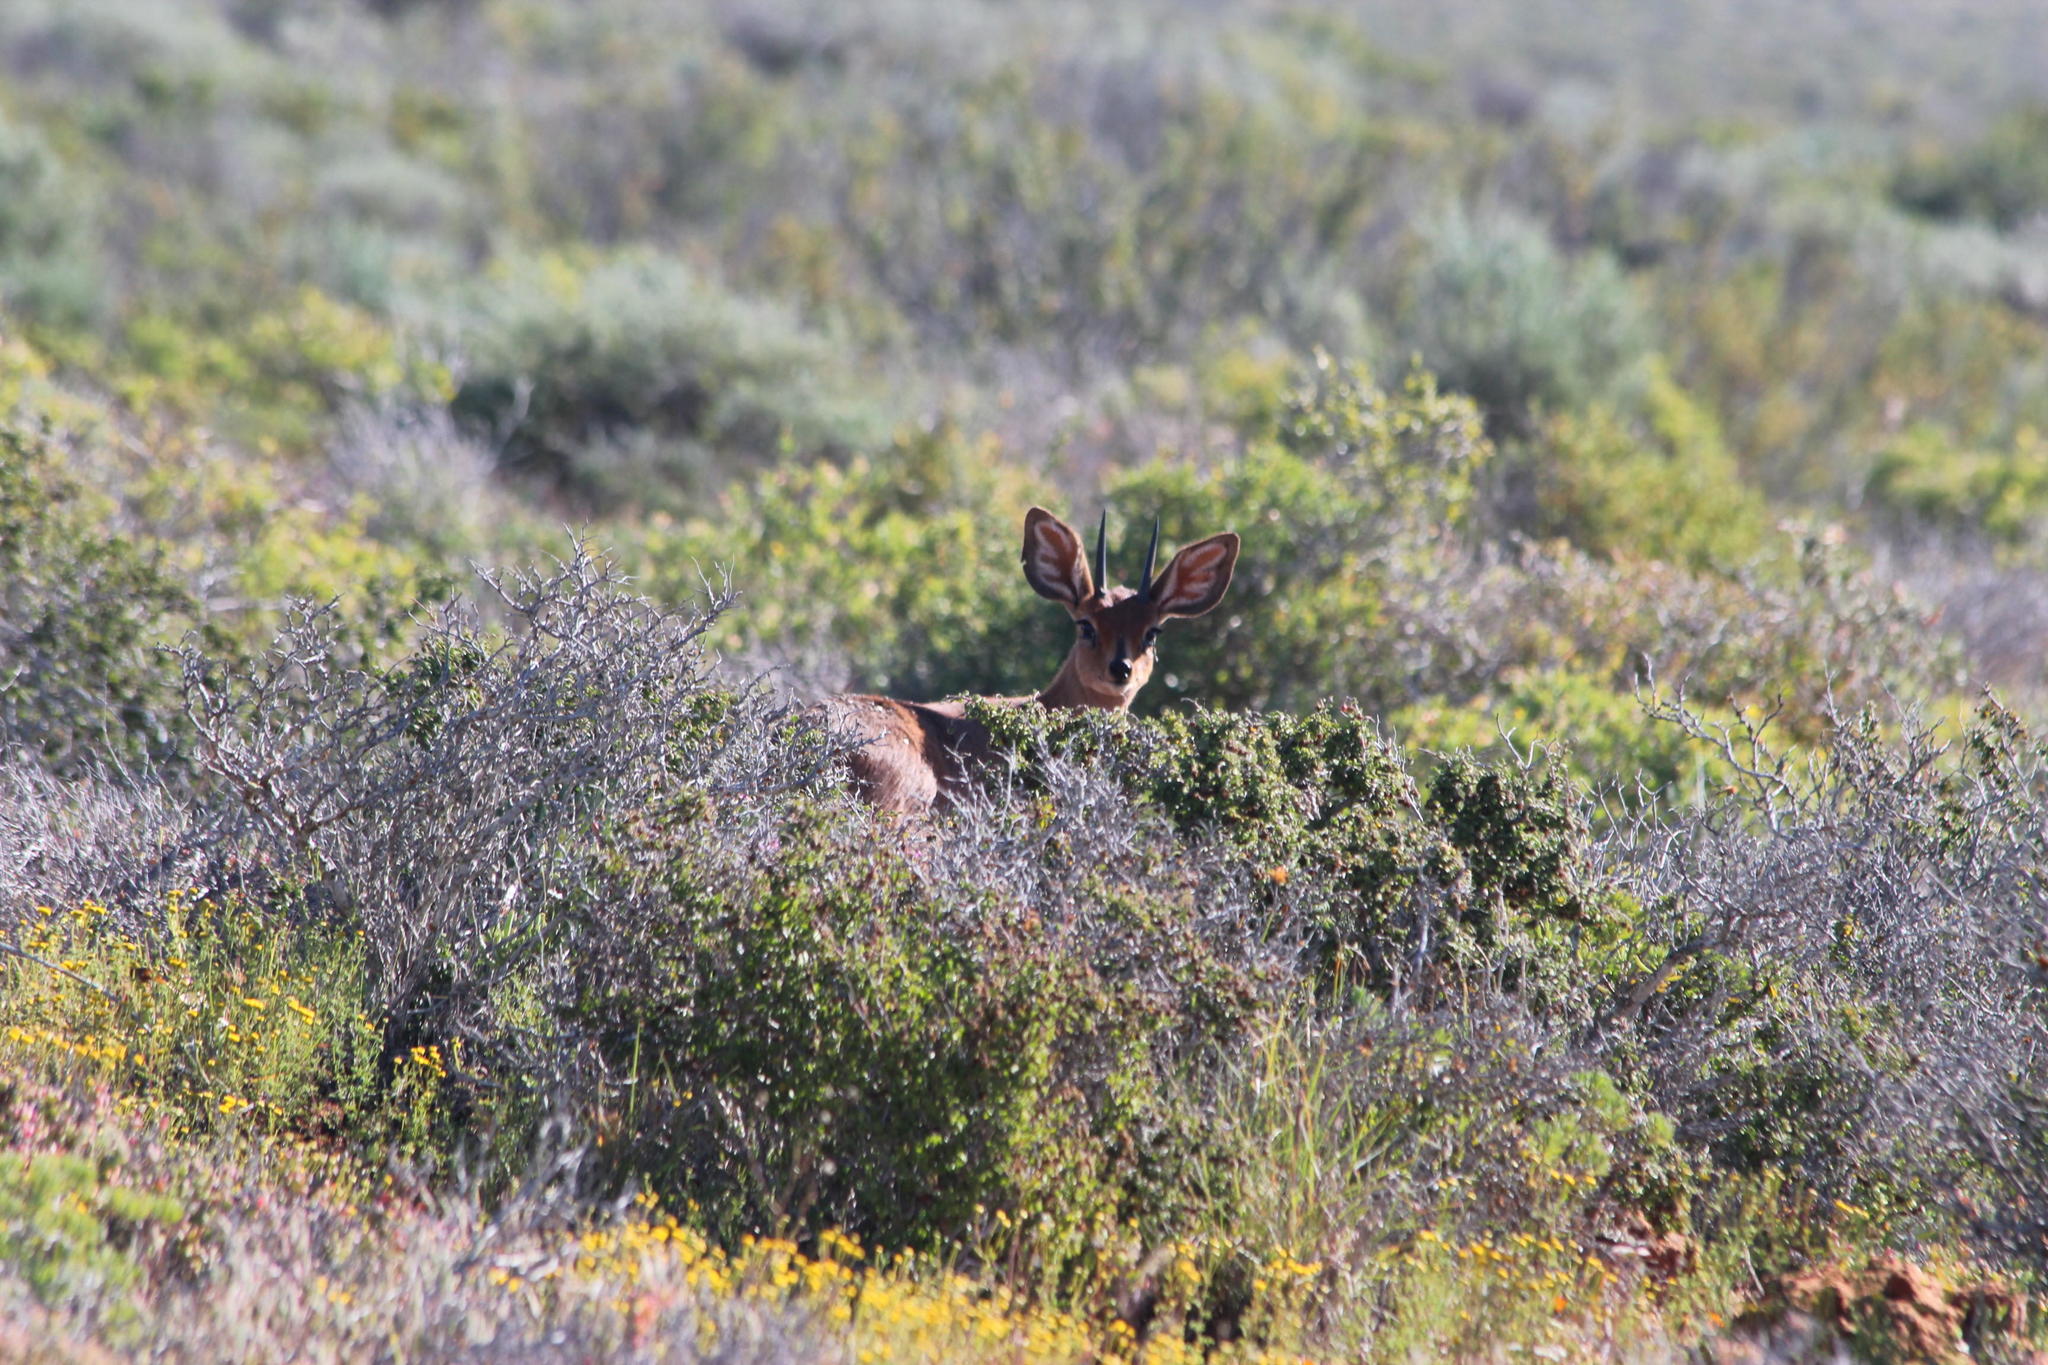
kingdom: Animalia
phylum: Chordata
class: Mammalia
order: Artiodactyla
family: Bovidae
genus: Raphicerus
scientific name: Raphicerus campestris
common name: Steenbok
